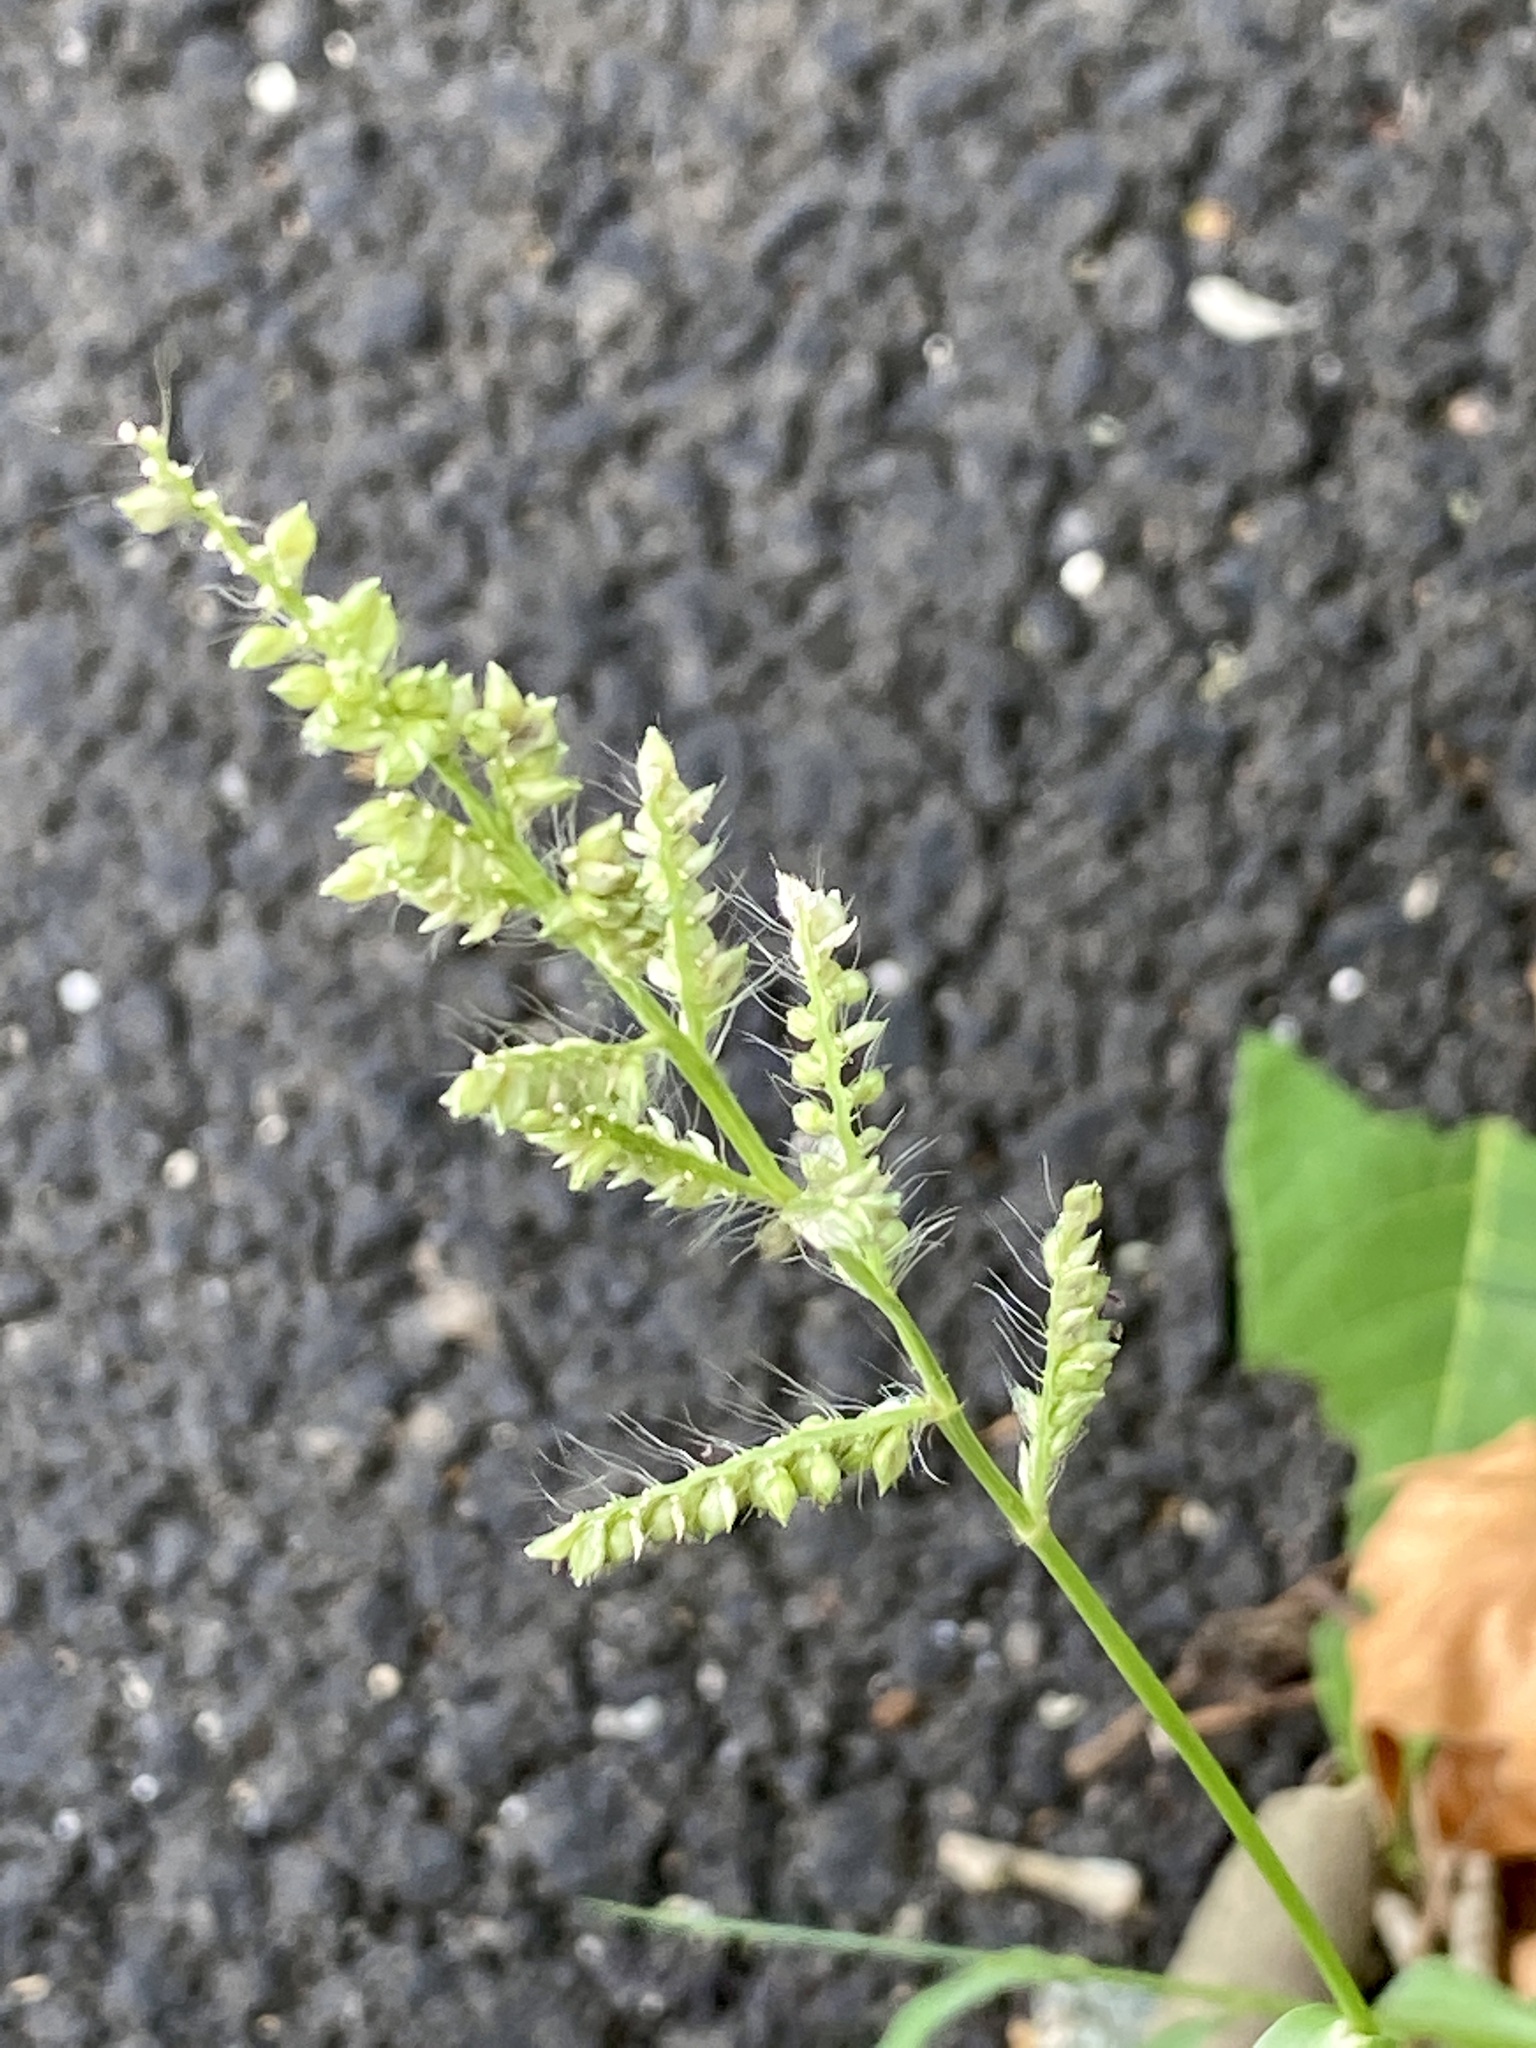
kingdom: Plantae
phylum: Tracheophyta
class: Liliopsida
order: Poales
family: Poaceae
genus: Echinochloa
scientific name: Echinochloa crus-galli
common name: Cockspur
